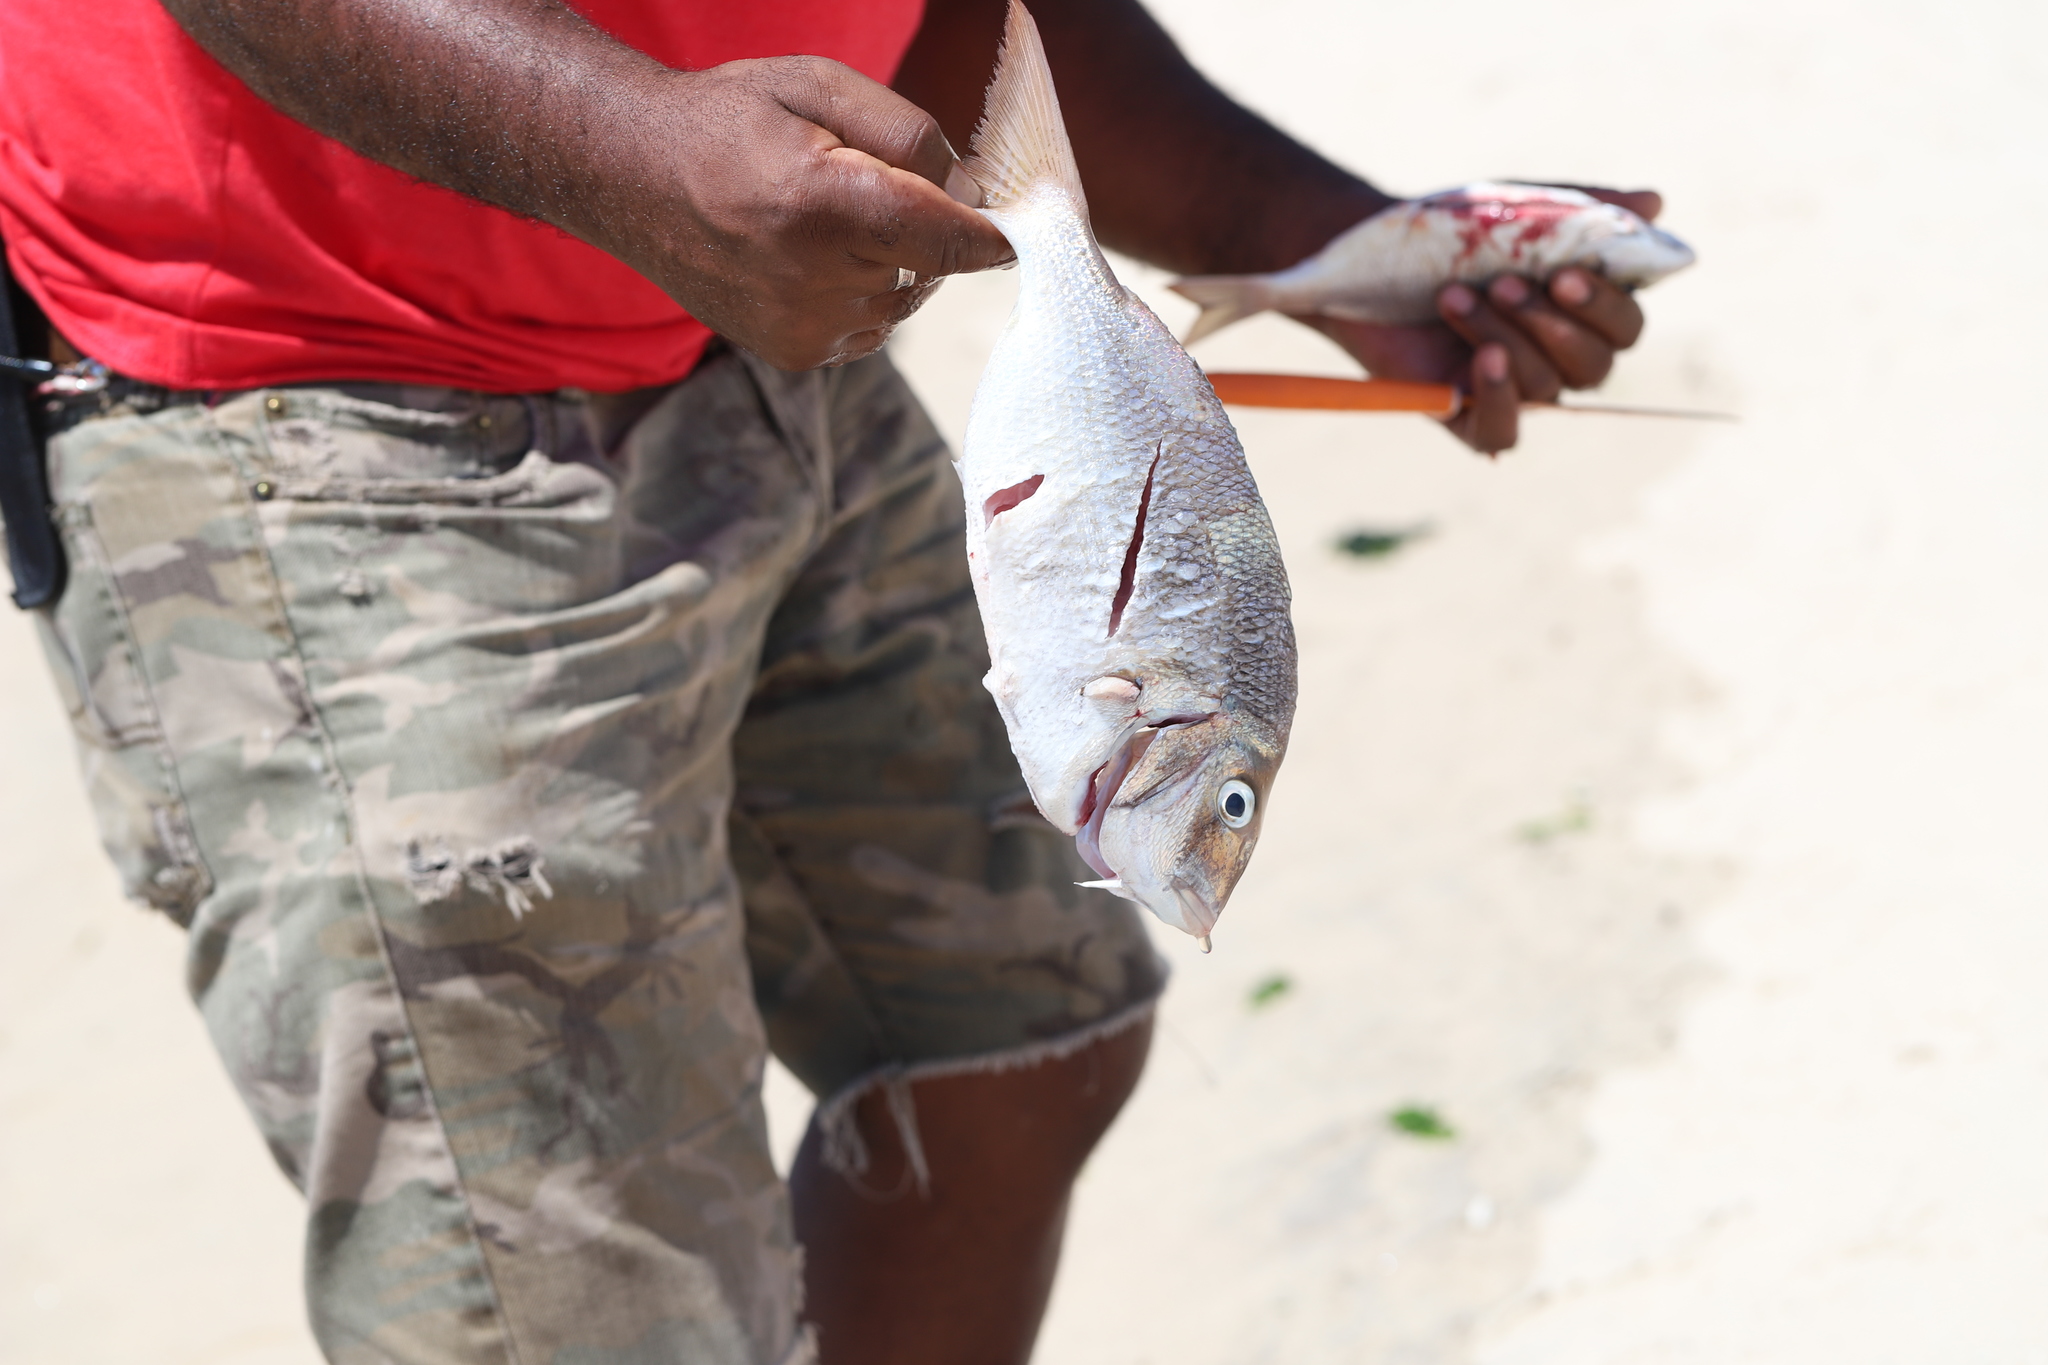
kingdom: Animalia
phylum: Chordata
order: Perciformes
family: Sparidae
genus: Stenotomus
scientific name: Stenotomus chrysops
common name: Scup
